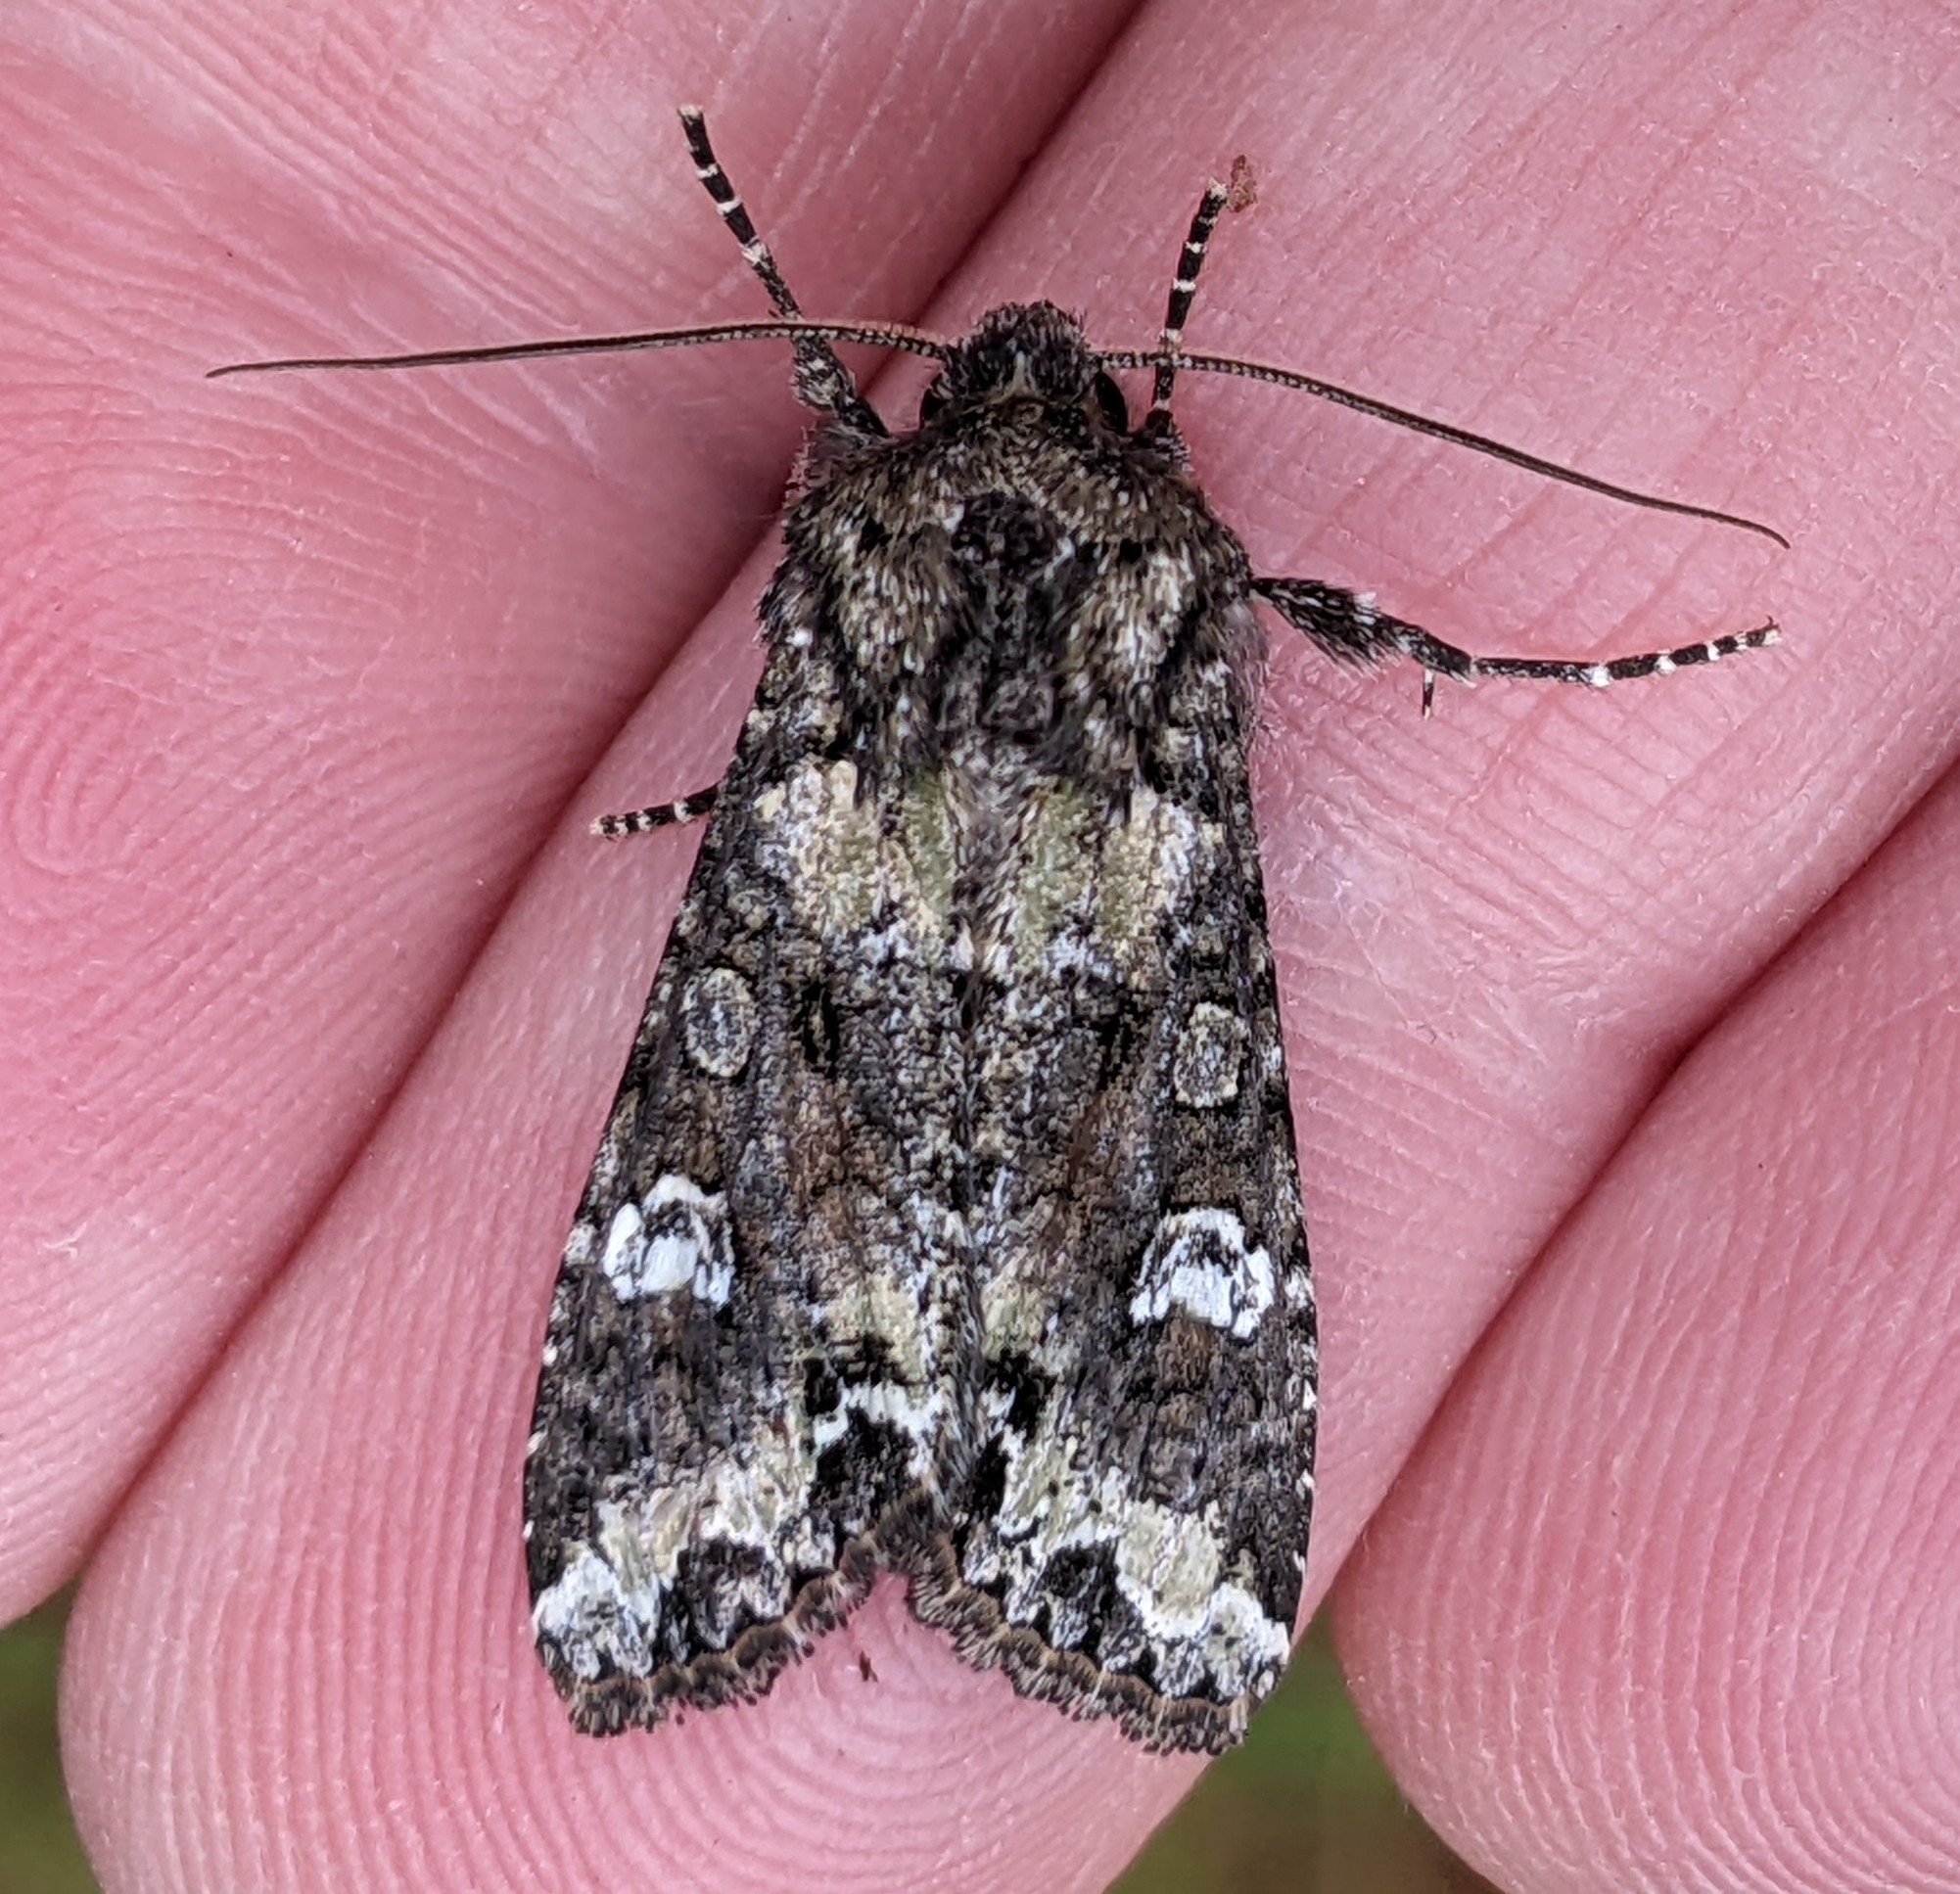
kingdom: Animalia
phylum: Arthropoda
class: Insecta
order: Lepidoptera
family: Noctuidae
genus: Mamestra
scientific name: Mamestra configurata
